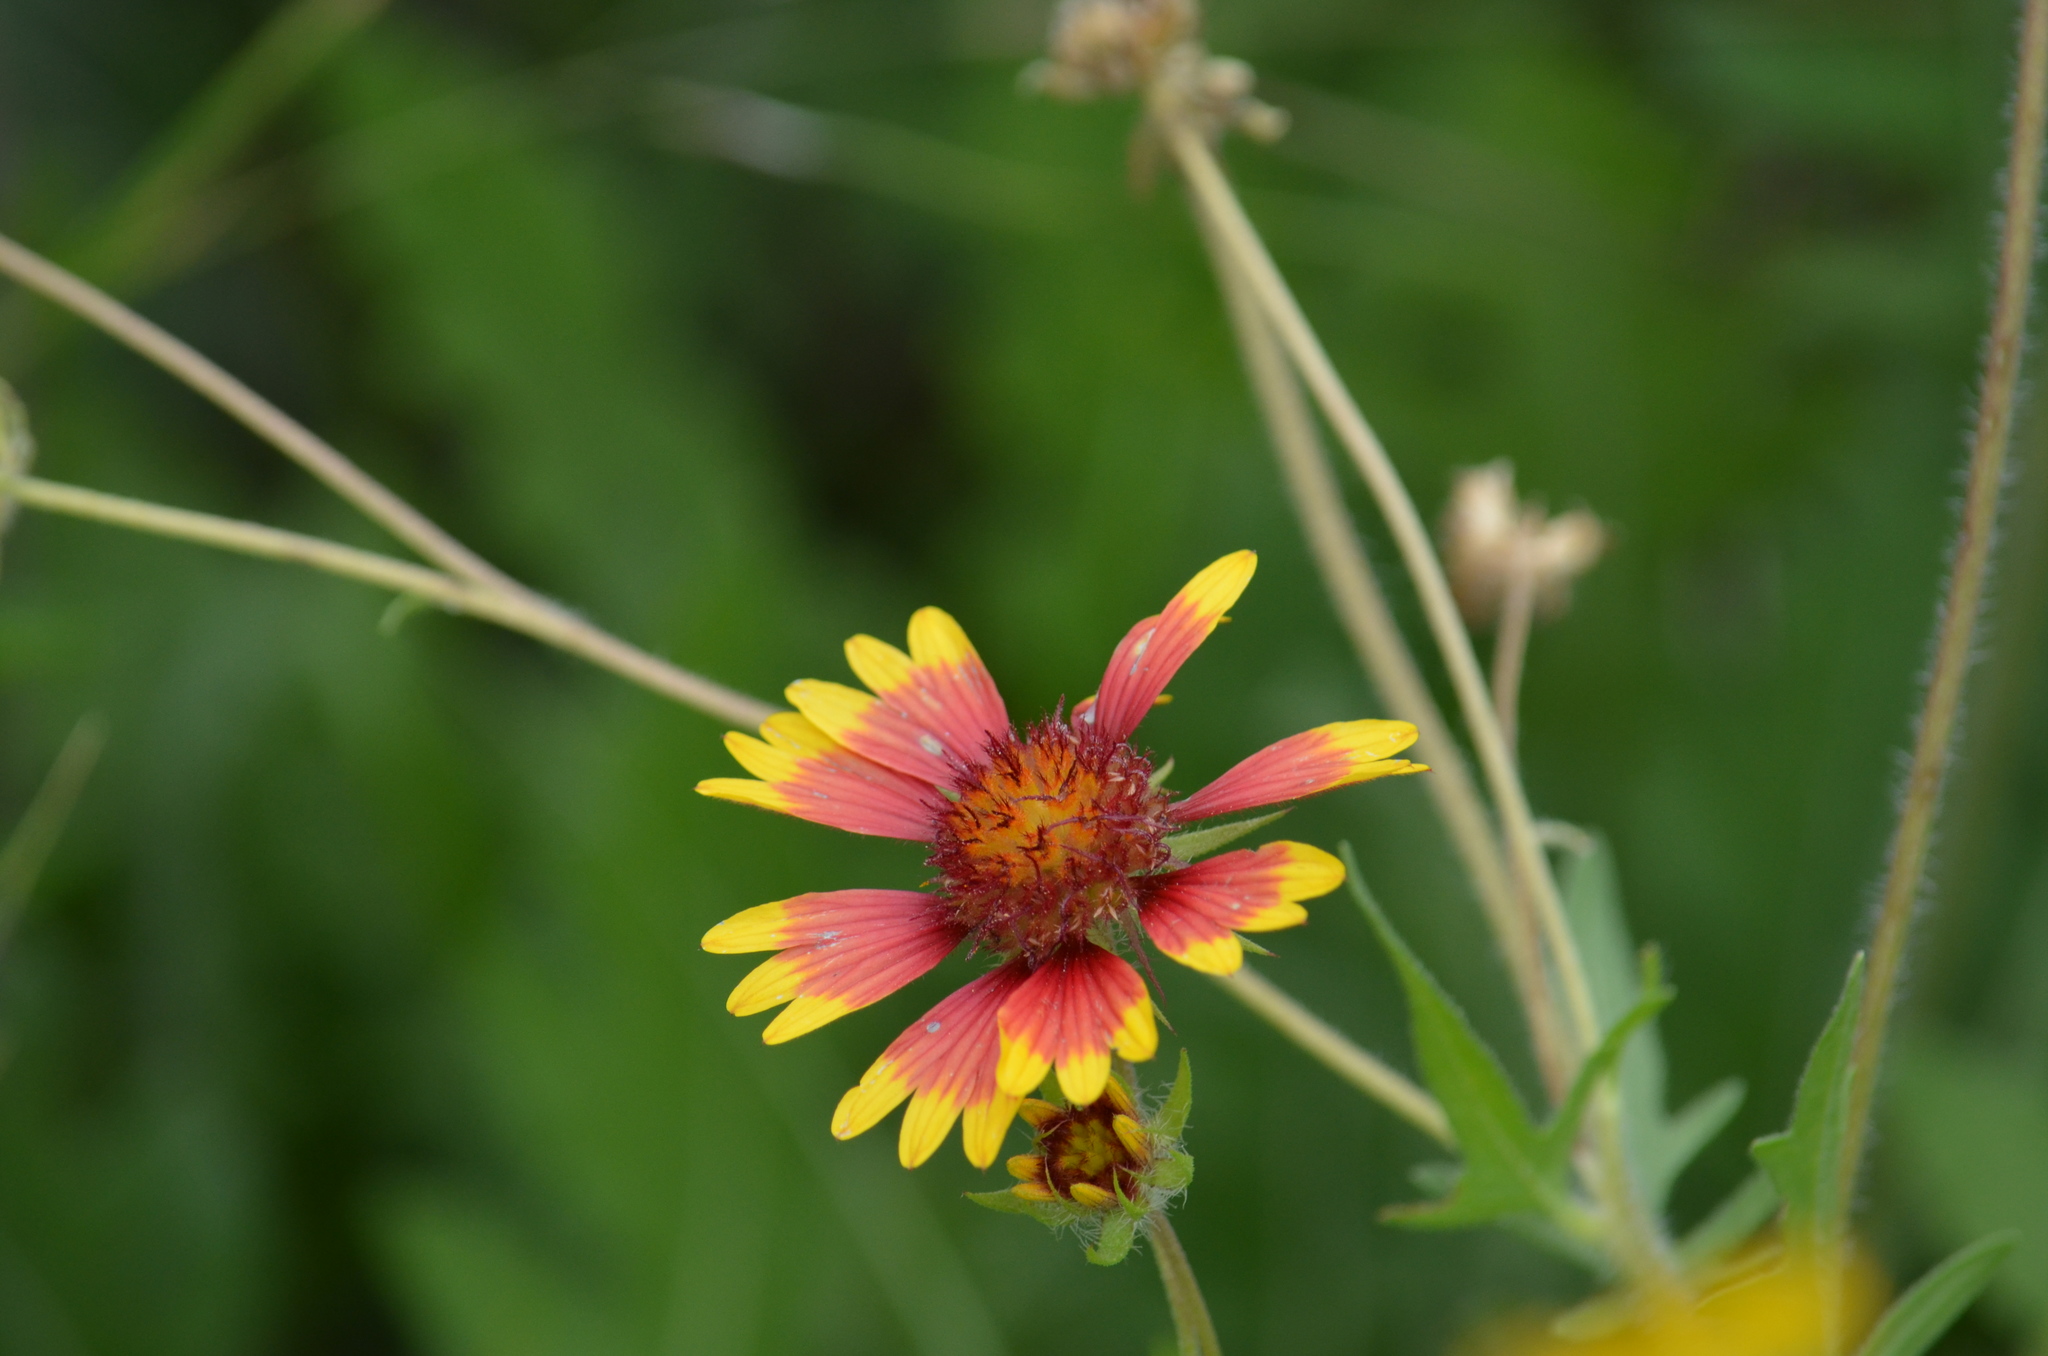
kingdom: Plantae
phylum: Tracheophyta
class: Magnoliopsida
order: Asterales
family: Asteraceae
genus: Gaillardia
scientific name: Gaillardia pulchella
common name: Firewheel
